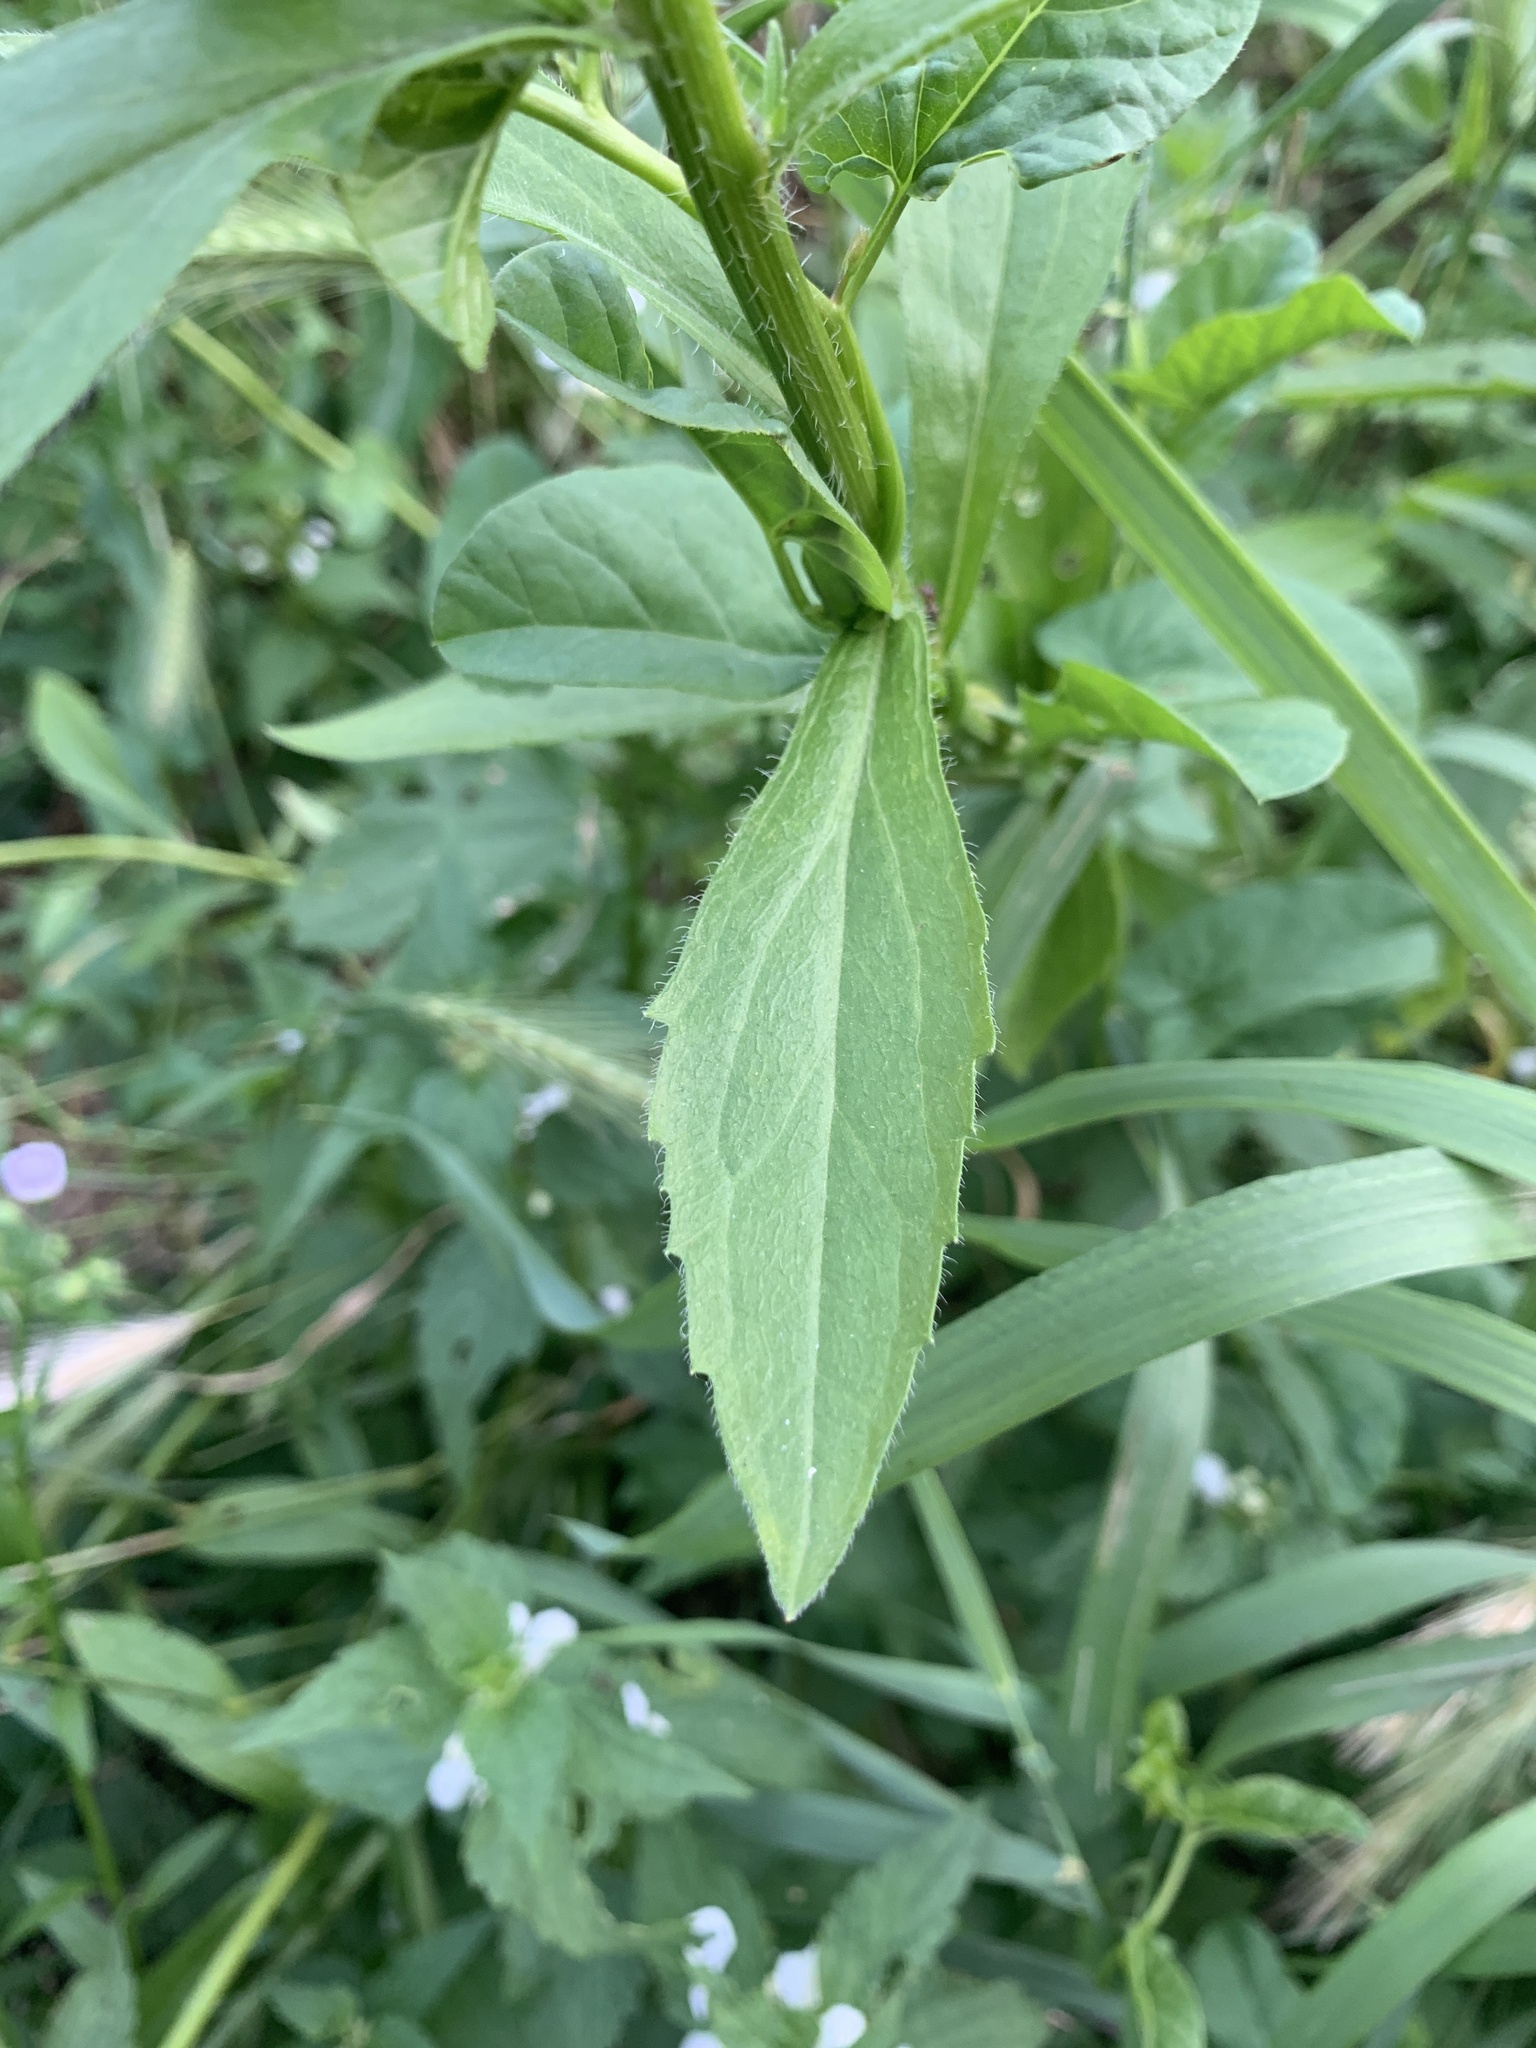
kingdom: Plantae
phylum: Tracheophyta
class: Magnoliopsida
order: Asterales
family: Asteraceae
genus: Erigeron
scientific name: Erigeron annuus
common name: Tall fleabane
